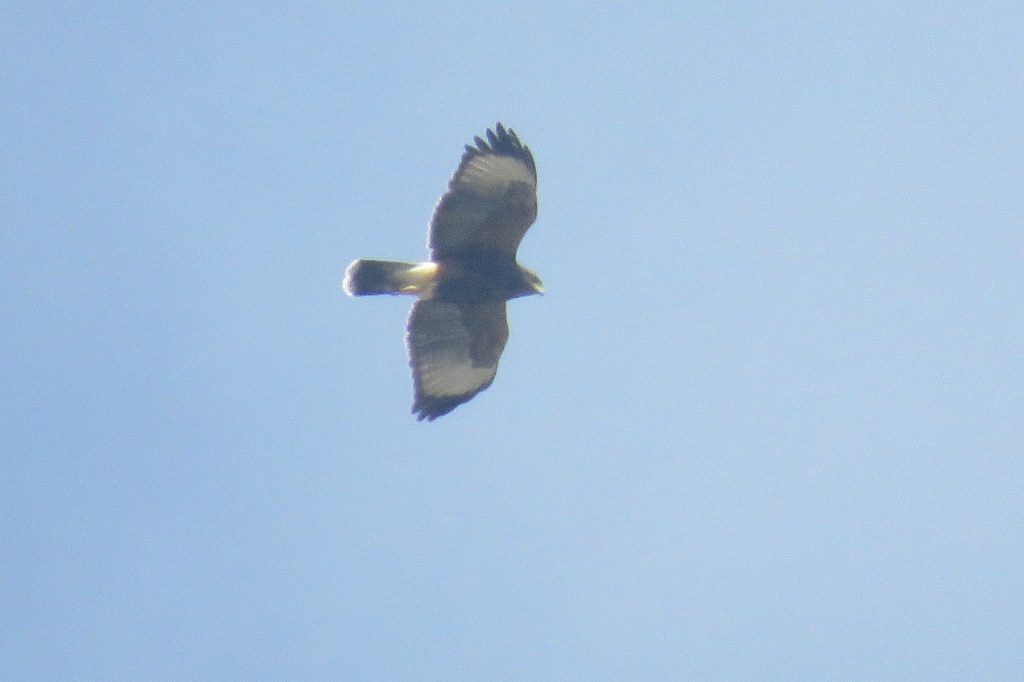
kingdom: Animalia
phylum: Chordata
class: Aves
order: Accipitriformes
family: Accipitridae
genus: Parabuteo
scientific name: Parabuteo unicinctus
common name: Harris's hawk
